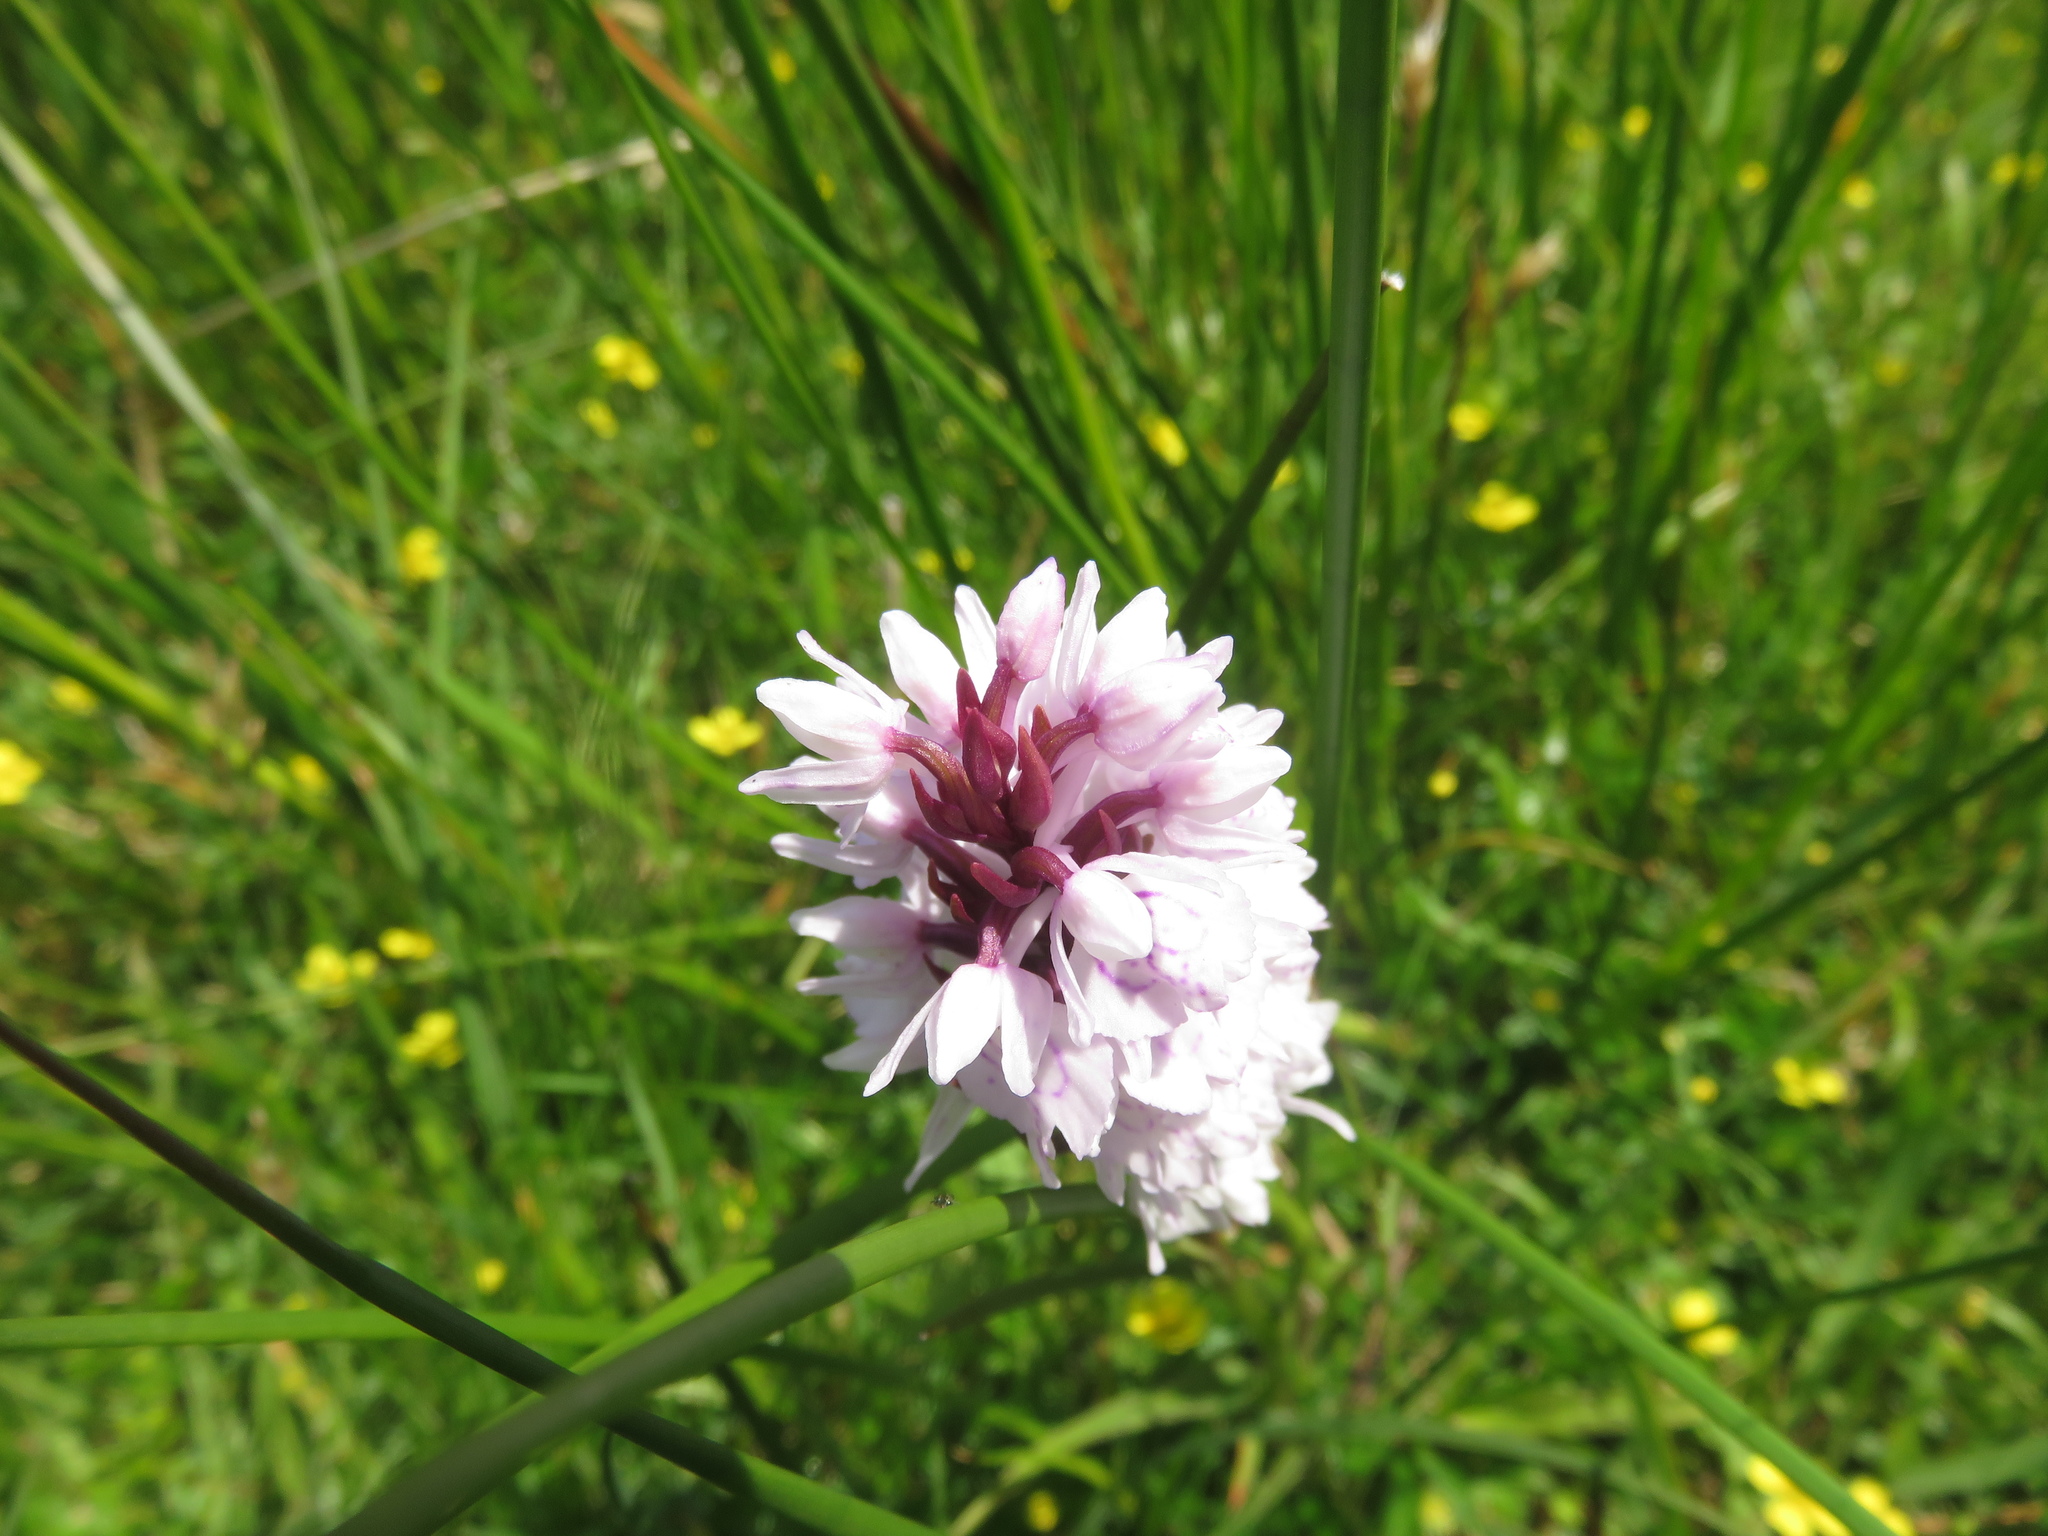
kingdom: Plantae
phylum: Tracheophyta
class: Liliopsida
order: Asparagales
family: Orchidaceae
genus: Dactylorhiza
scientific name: Dactylorhiza maculata
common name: Heath spotted-orchid
